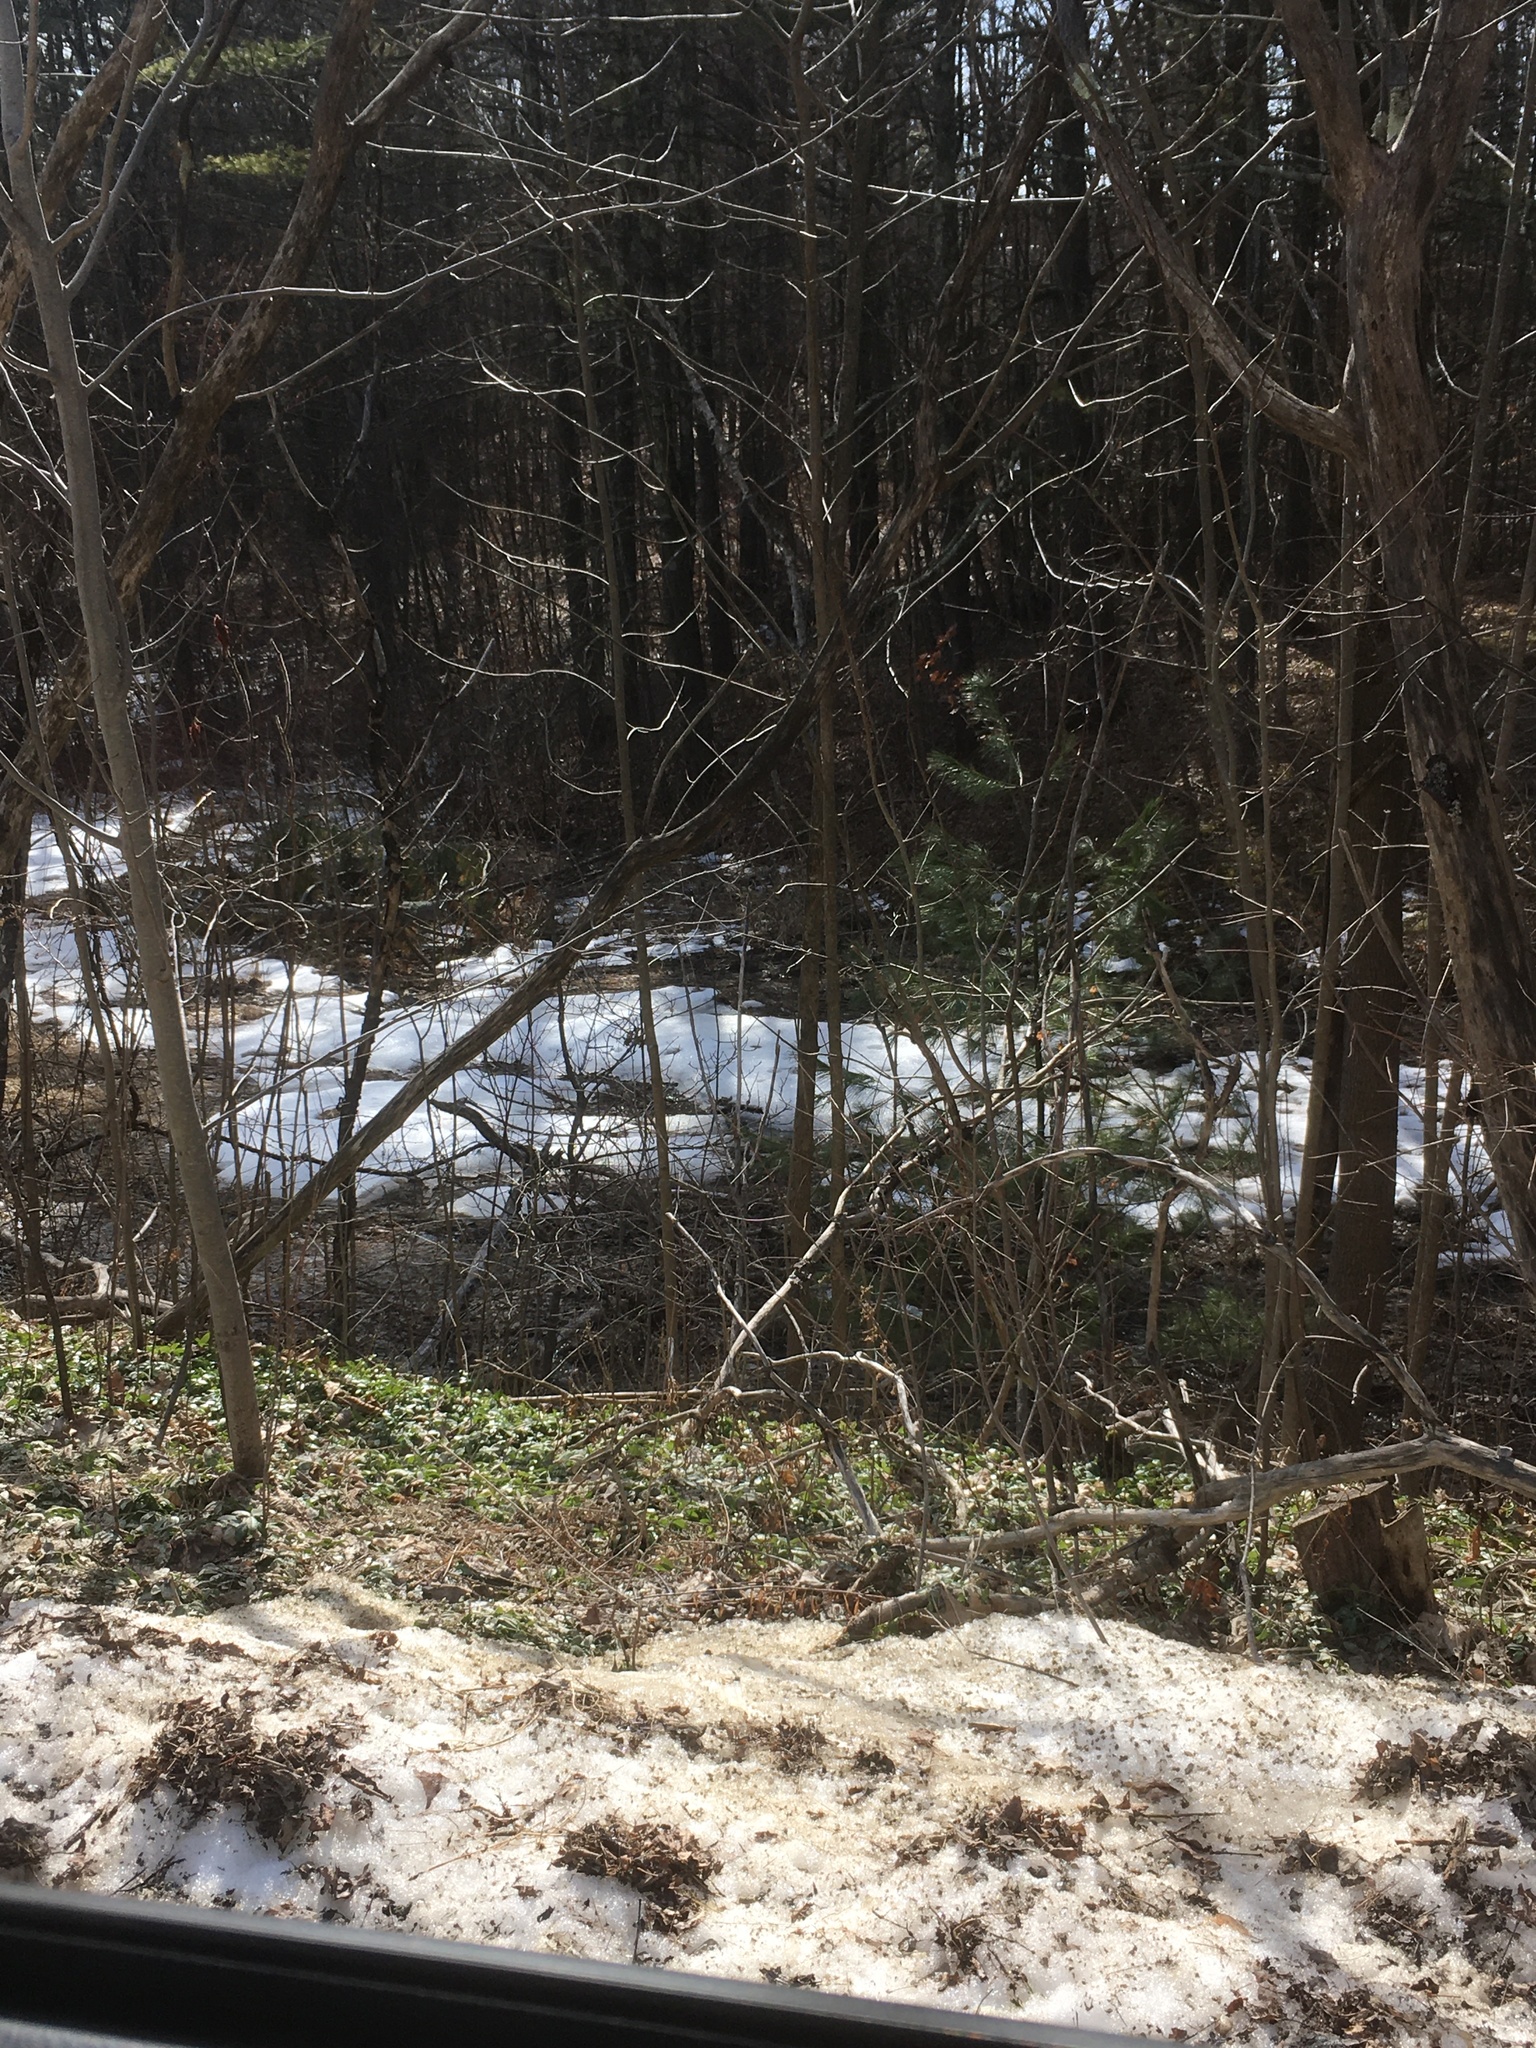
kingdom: Plantae
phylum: Tracheophyta
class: Pinopsida
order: Pinales
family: Pinaceae
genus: Pinus
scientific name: Pinus strobus
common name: Weymouth pine
